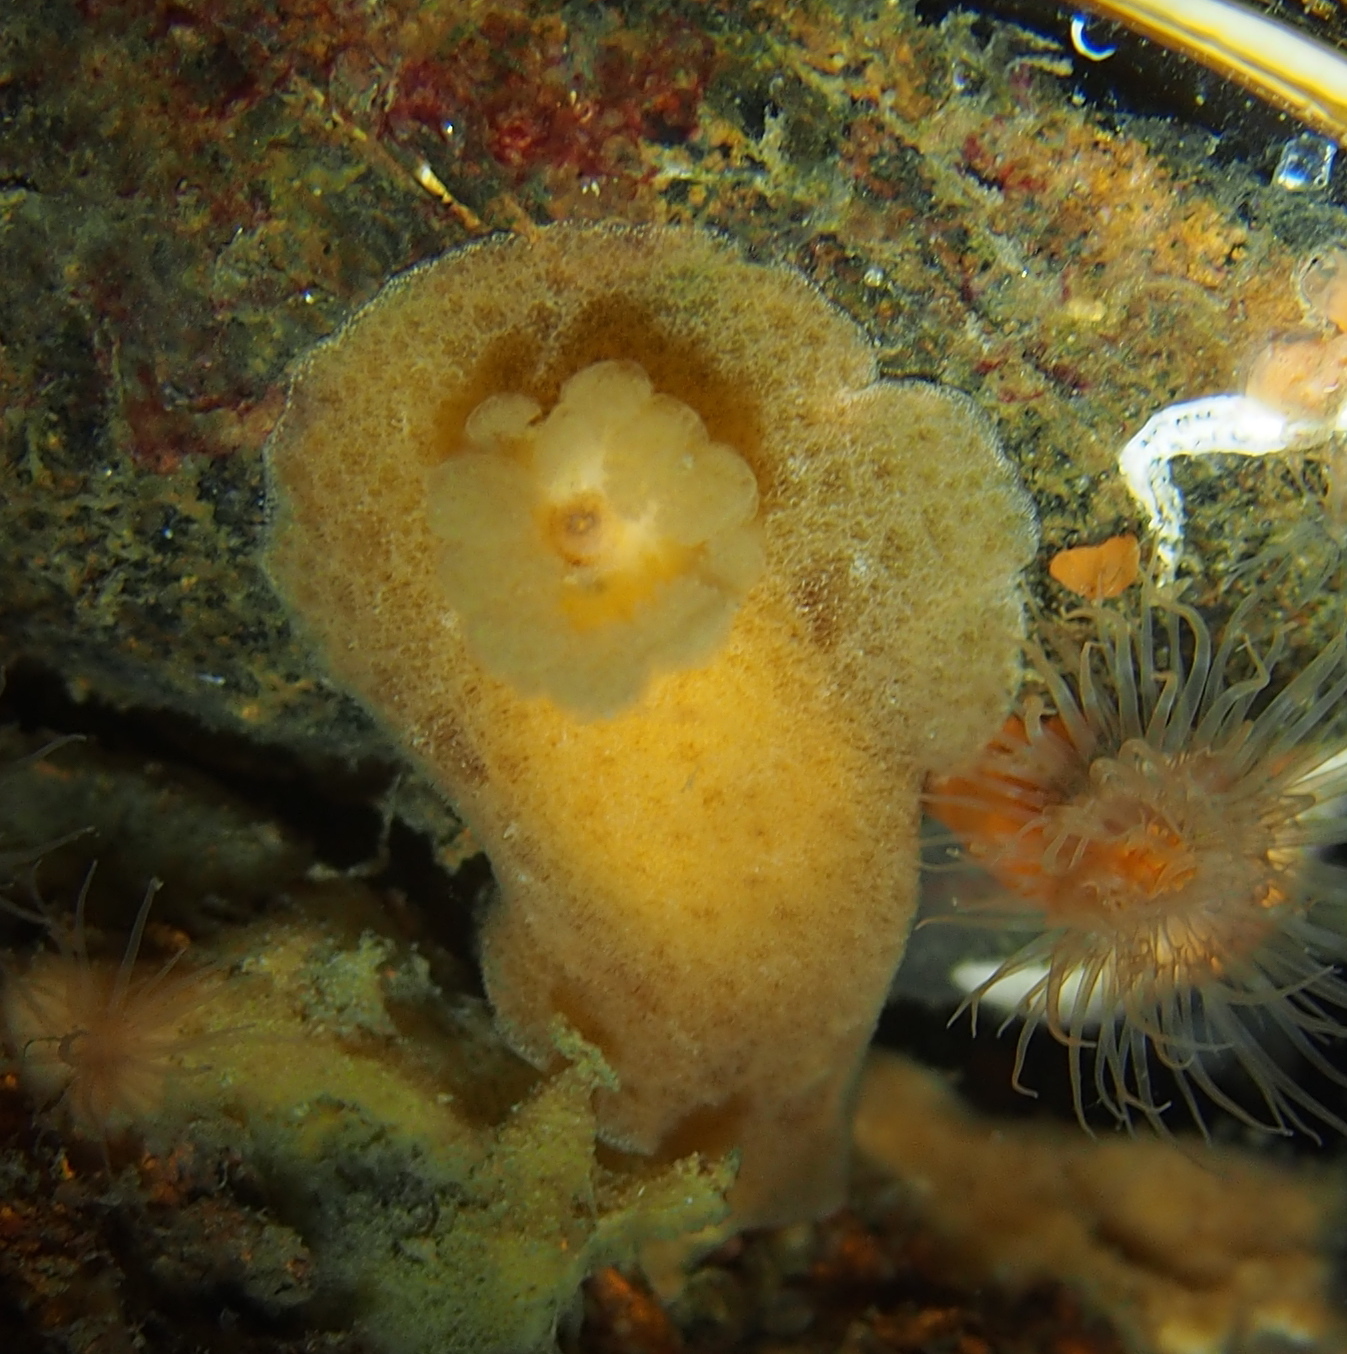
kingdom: Animalia
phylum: Mollusca
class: Gastropoda
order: Nudibranchia
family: Discodorididae
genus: Jorunna
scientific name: Jorunna tomentosa
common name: Grey sea slug
